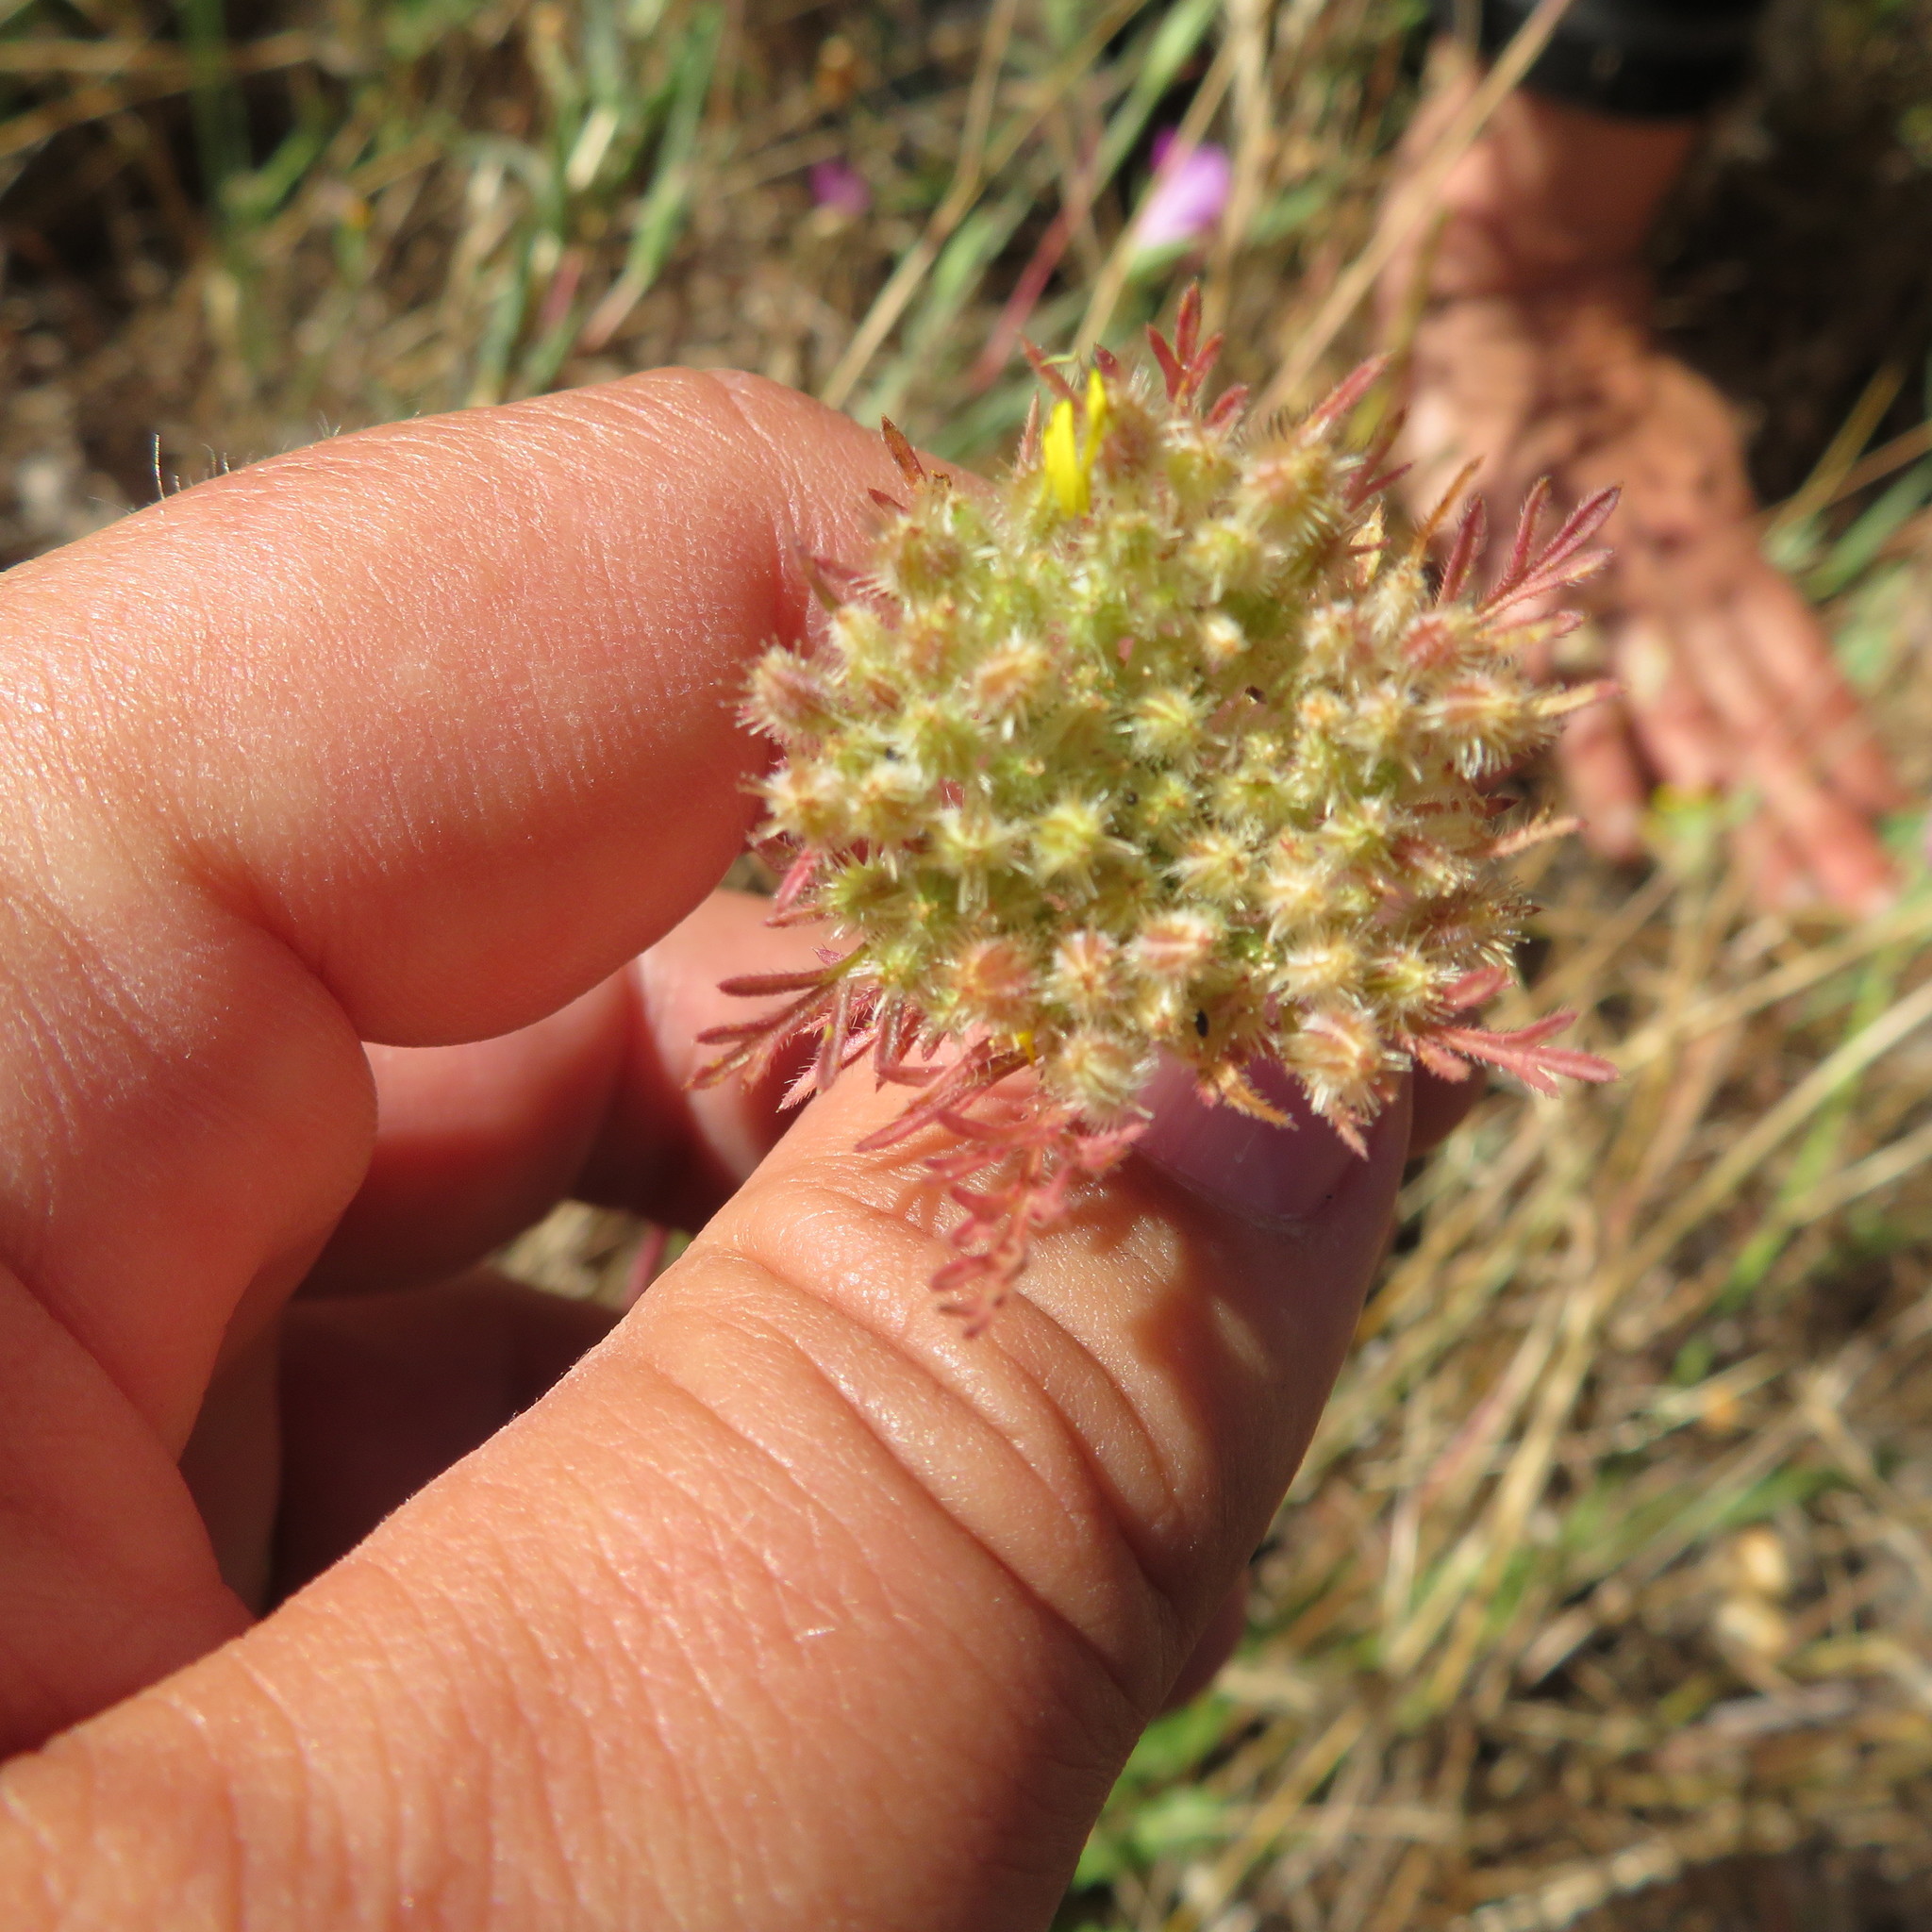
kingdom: Plantae
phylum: Tracheophyta
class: Magnoliopsida
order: Apiales
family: Apiaceae
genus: Daucus
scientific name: Daucus pusillus
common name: Southwest wild carrot
